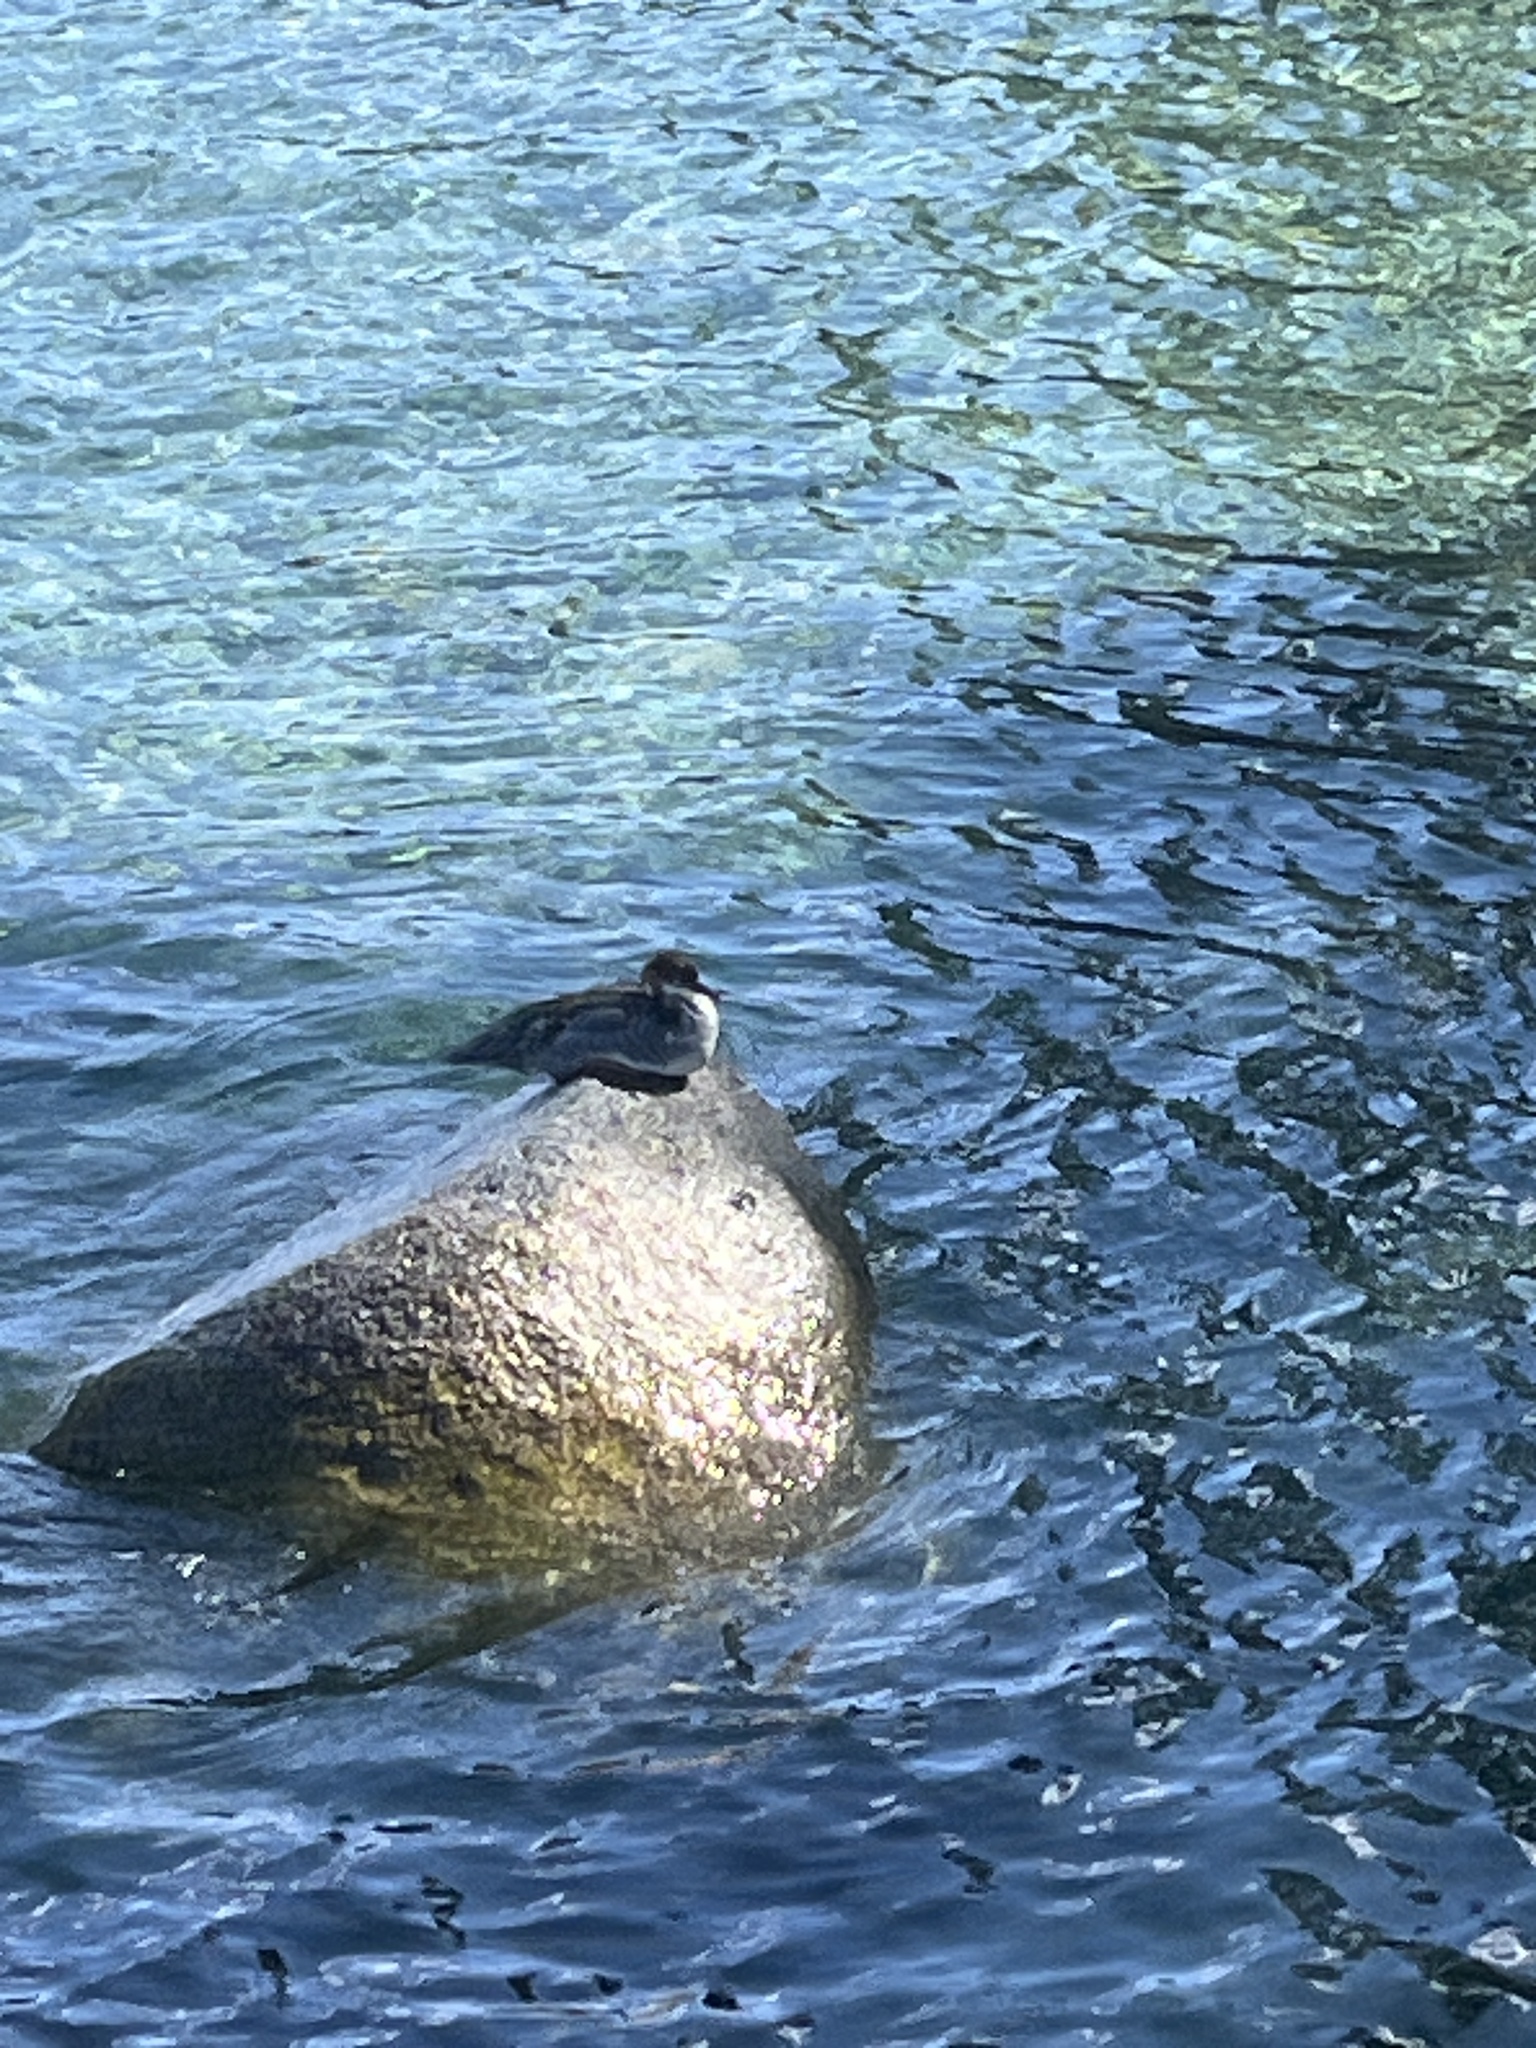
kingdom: Animalia
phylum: Chordata
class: Aves
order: Anseriformes
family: Anatidae
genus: Mergus
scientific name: Mergus merganser
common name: Common merganser
